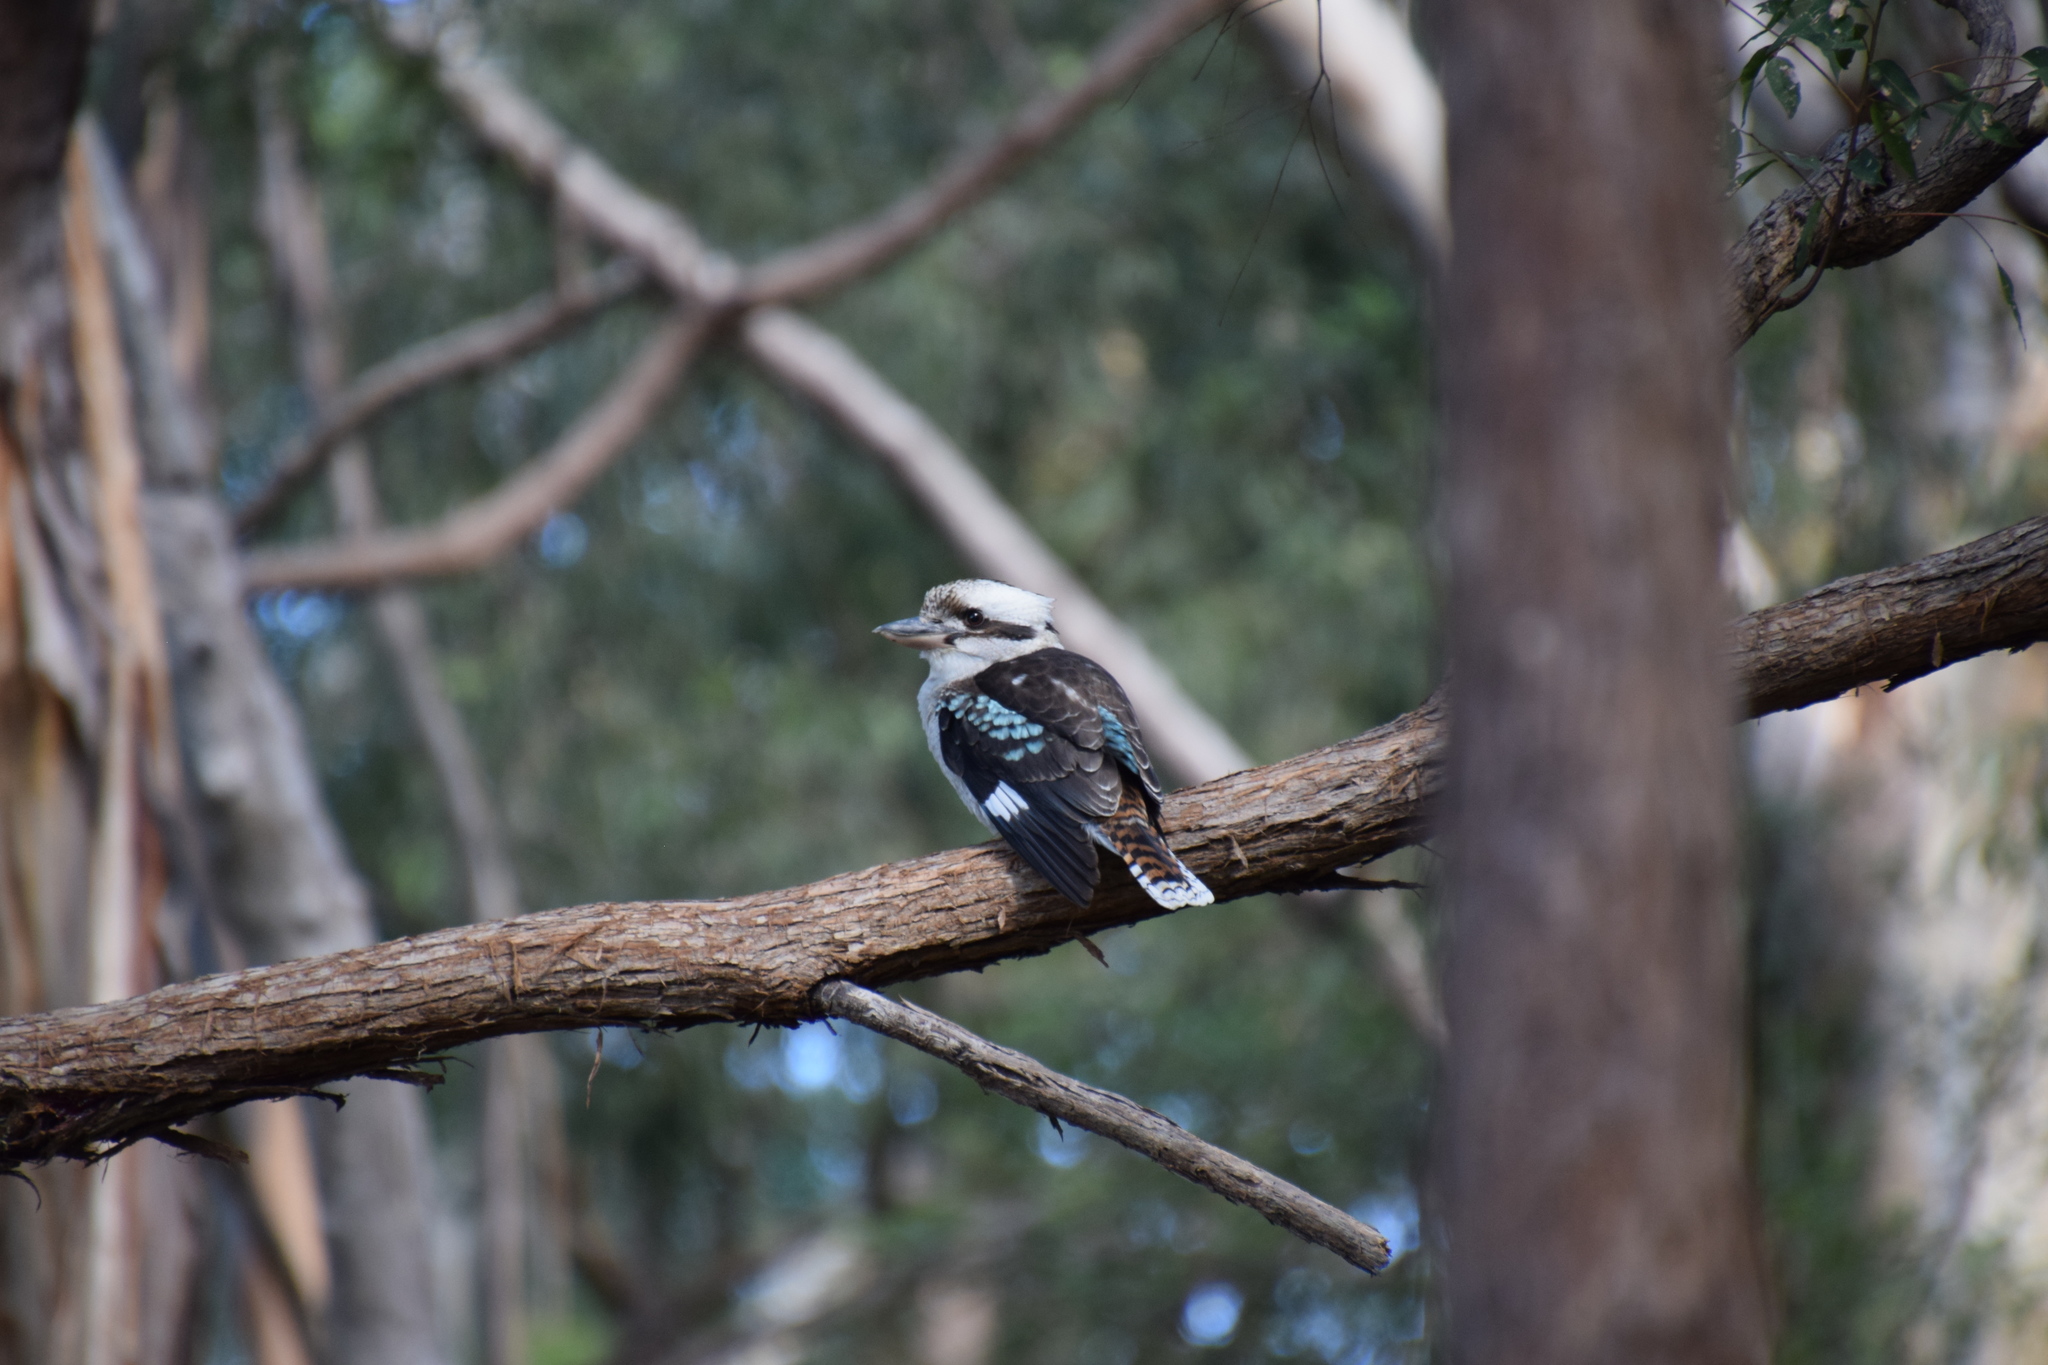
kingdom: Animalia
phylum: Chordata
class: Aves
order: Coraciiformes
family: Alcedinidae
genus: Dacelo
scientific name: Dacelo novaeguineae
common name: Laughing kookaburra
